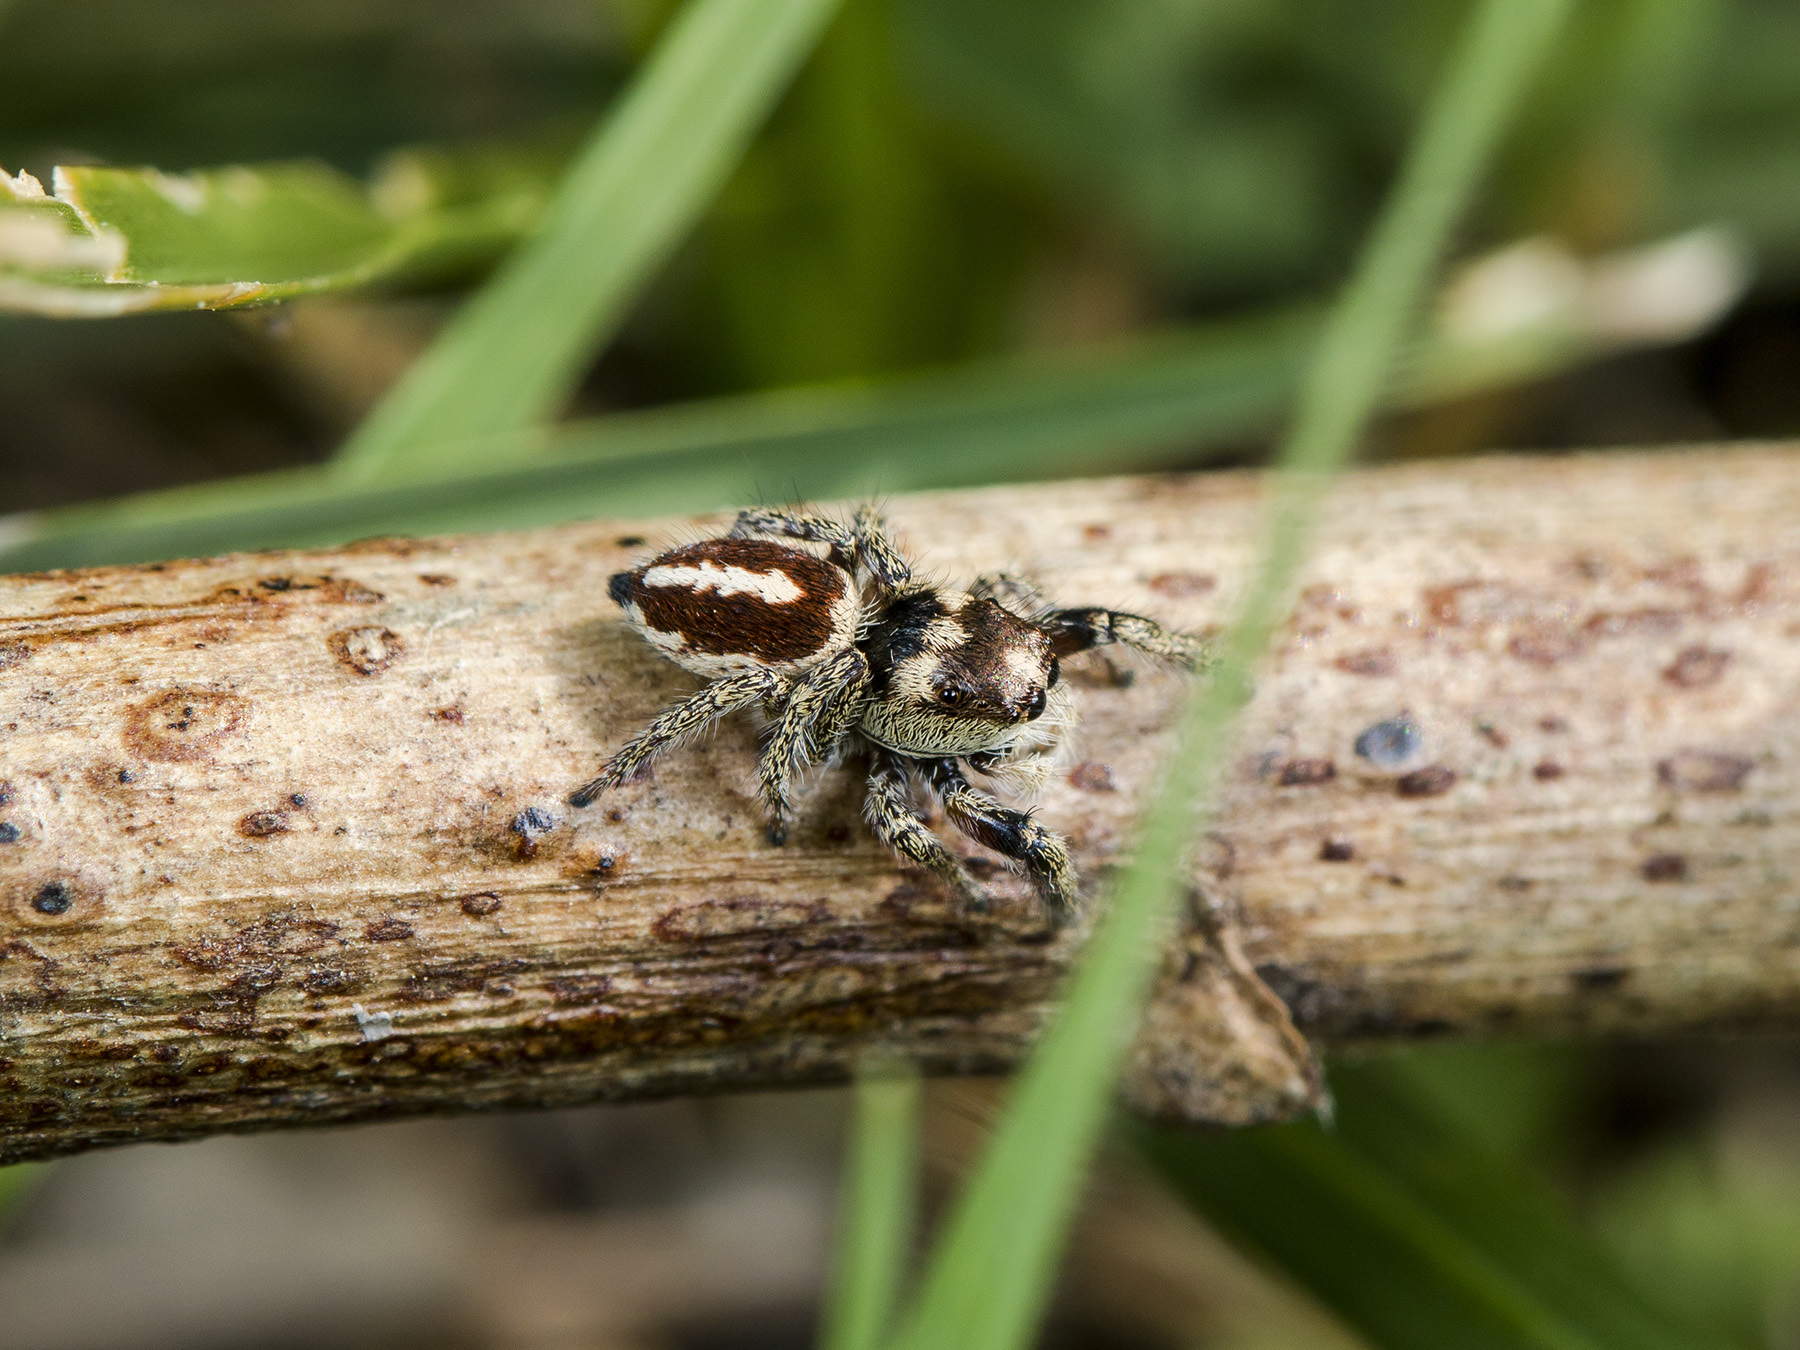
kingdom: Animalia
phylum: Arthropoda
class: Arachnida
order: Araneae
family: Salticidae
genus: Pellenes
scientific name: Pellenes allegrii
